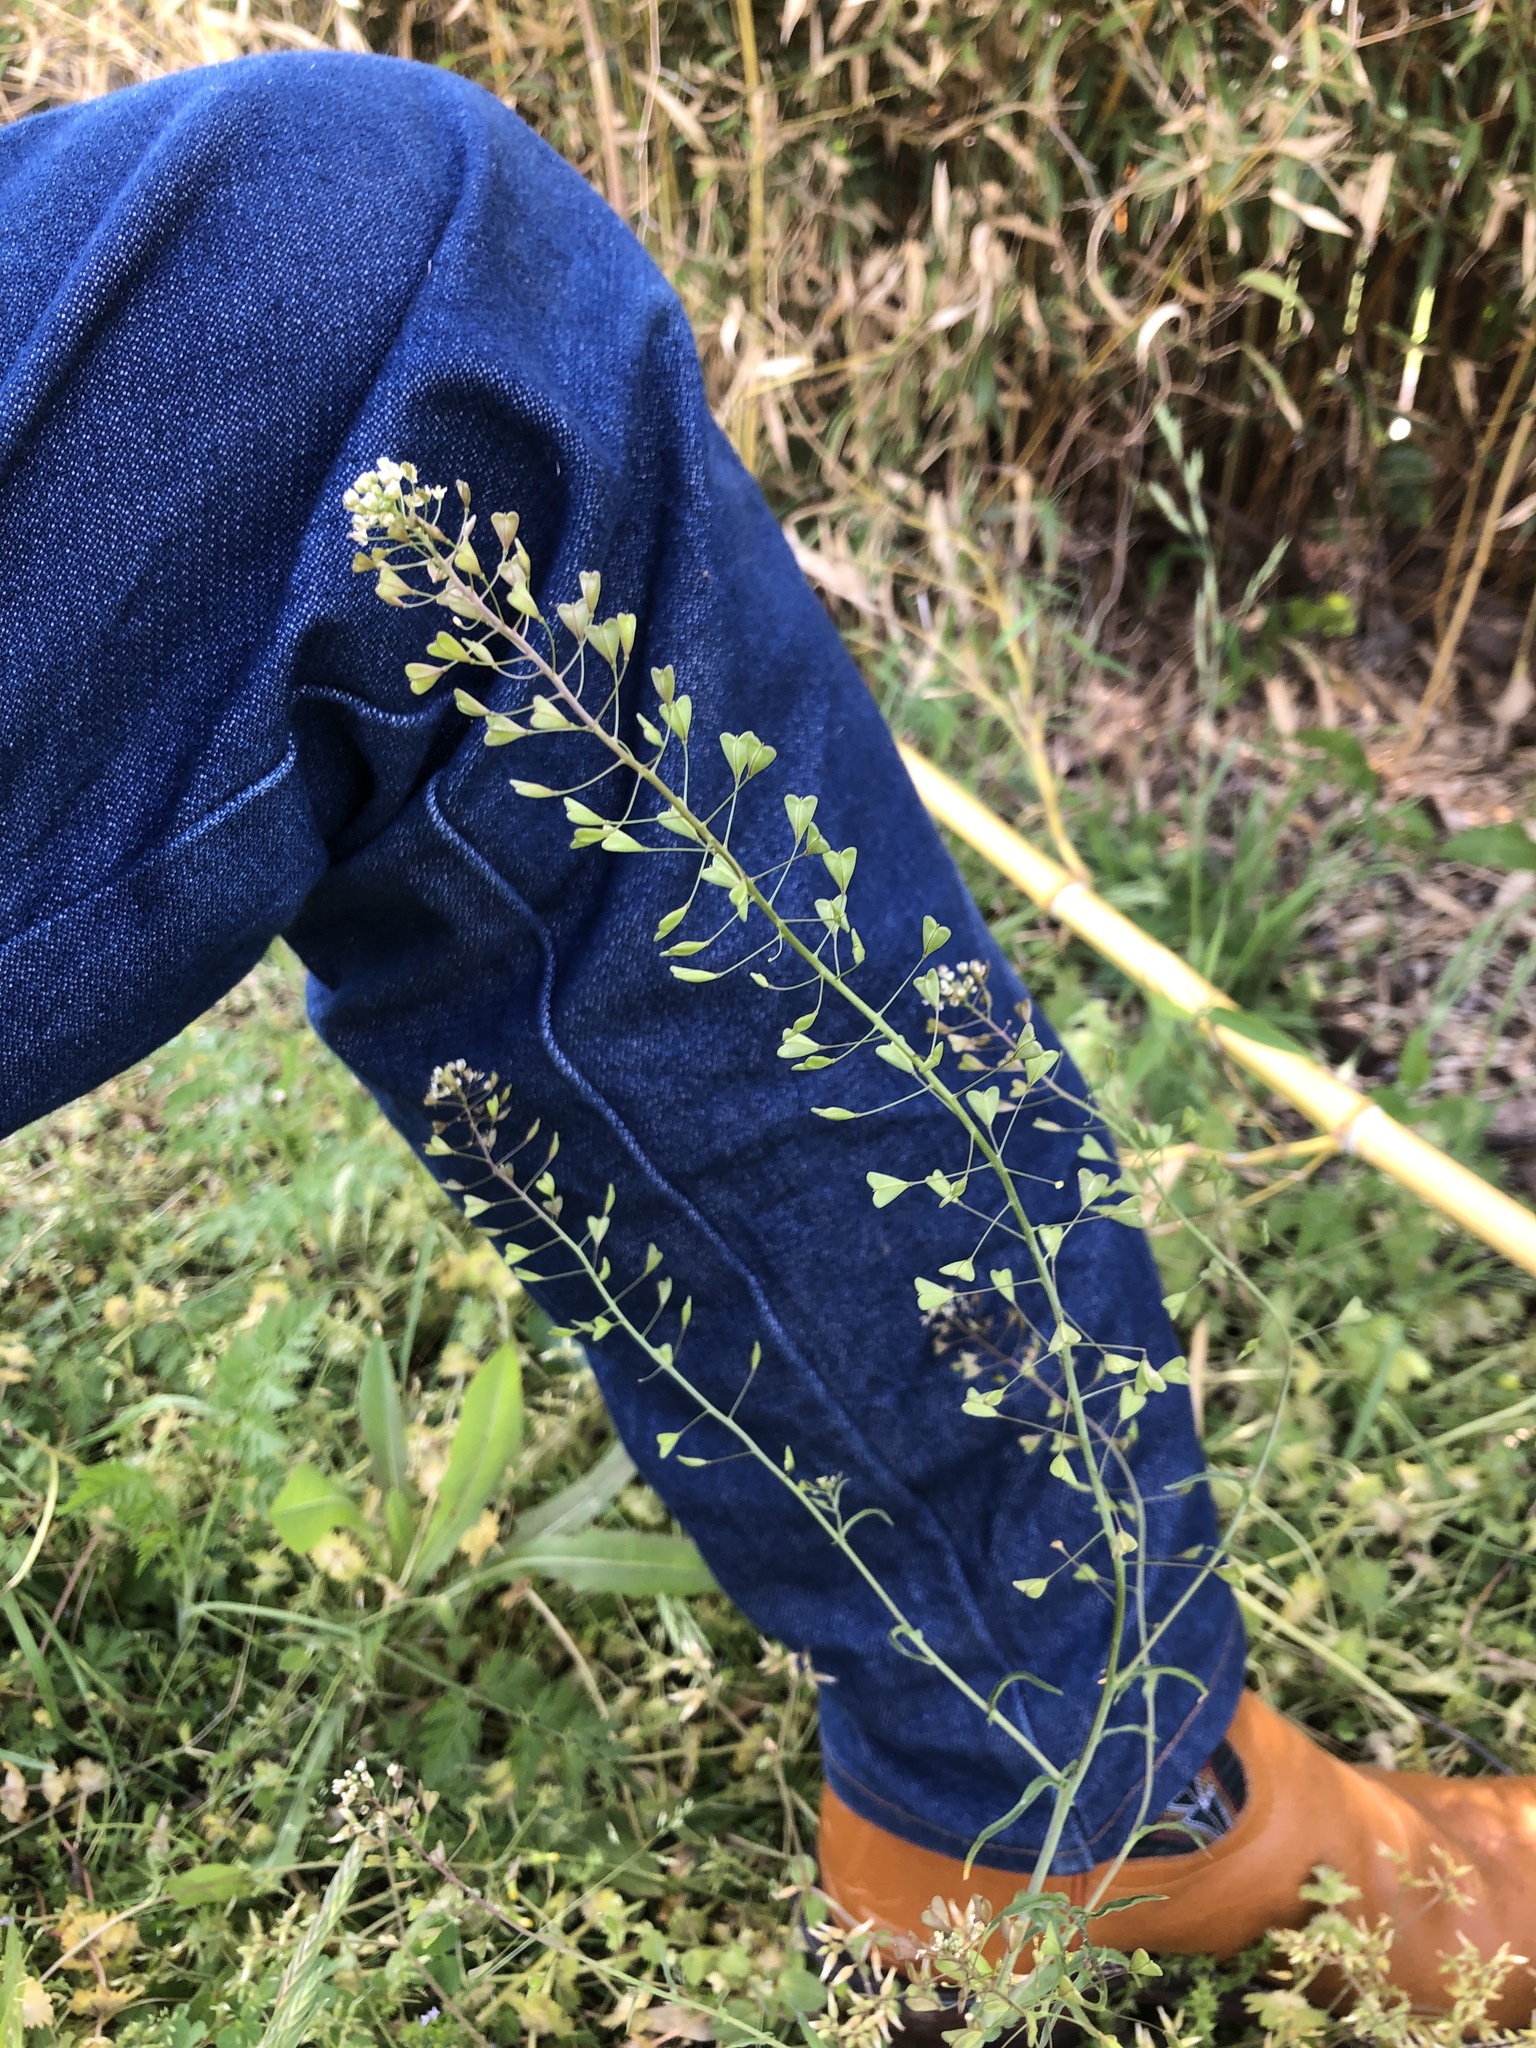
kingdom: Plantae
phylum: Tracheophyta
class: Magnoliopsida
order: Brassicales
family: Brassicaceae
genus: Capsella
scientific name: Capsella bursa-pastoris
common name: Shepherd's purse
